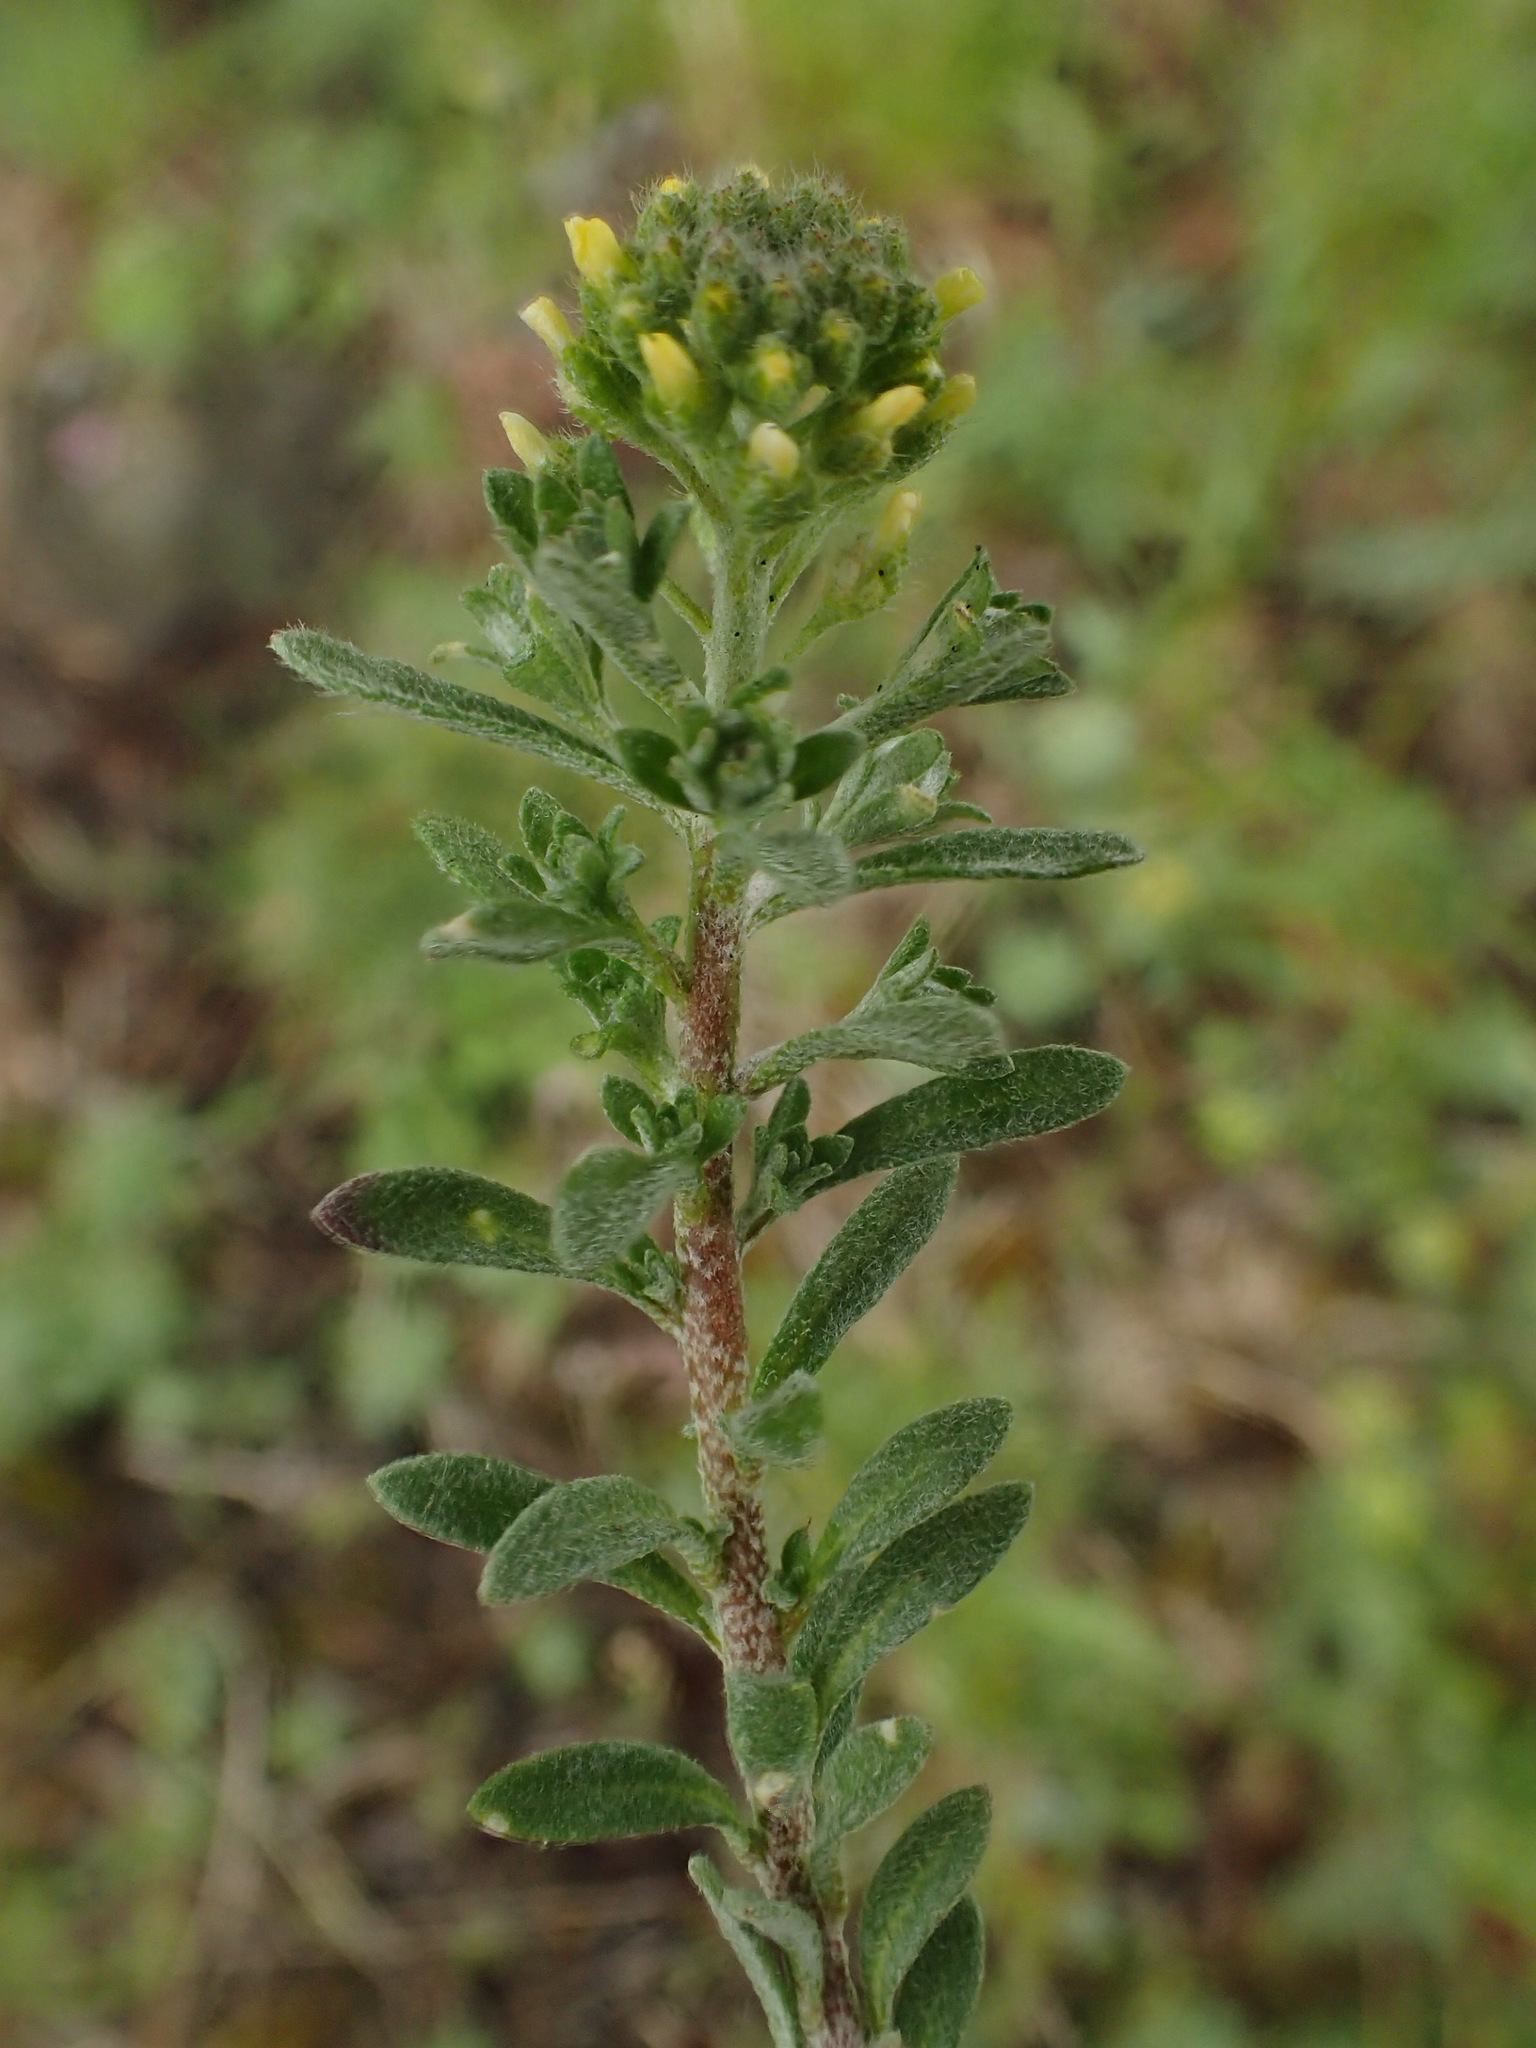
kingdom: Plantae
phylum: Tracheophyta
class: Magnoliopsida
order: Brassicales
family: Brassicaceae
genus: Alyssum
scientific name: Alyssum alyssoides
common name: Small alison
